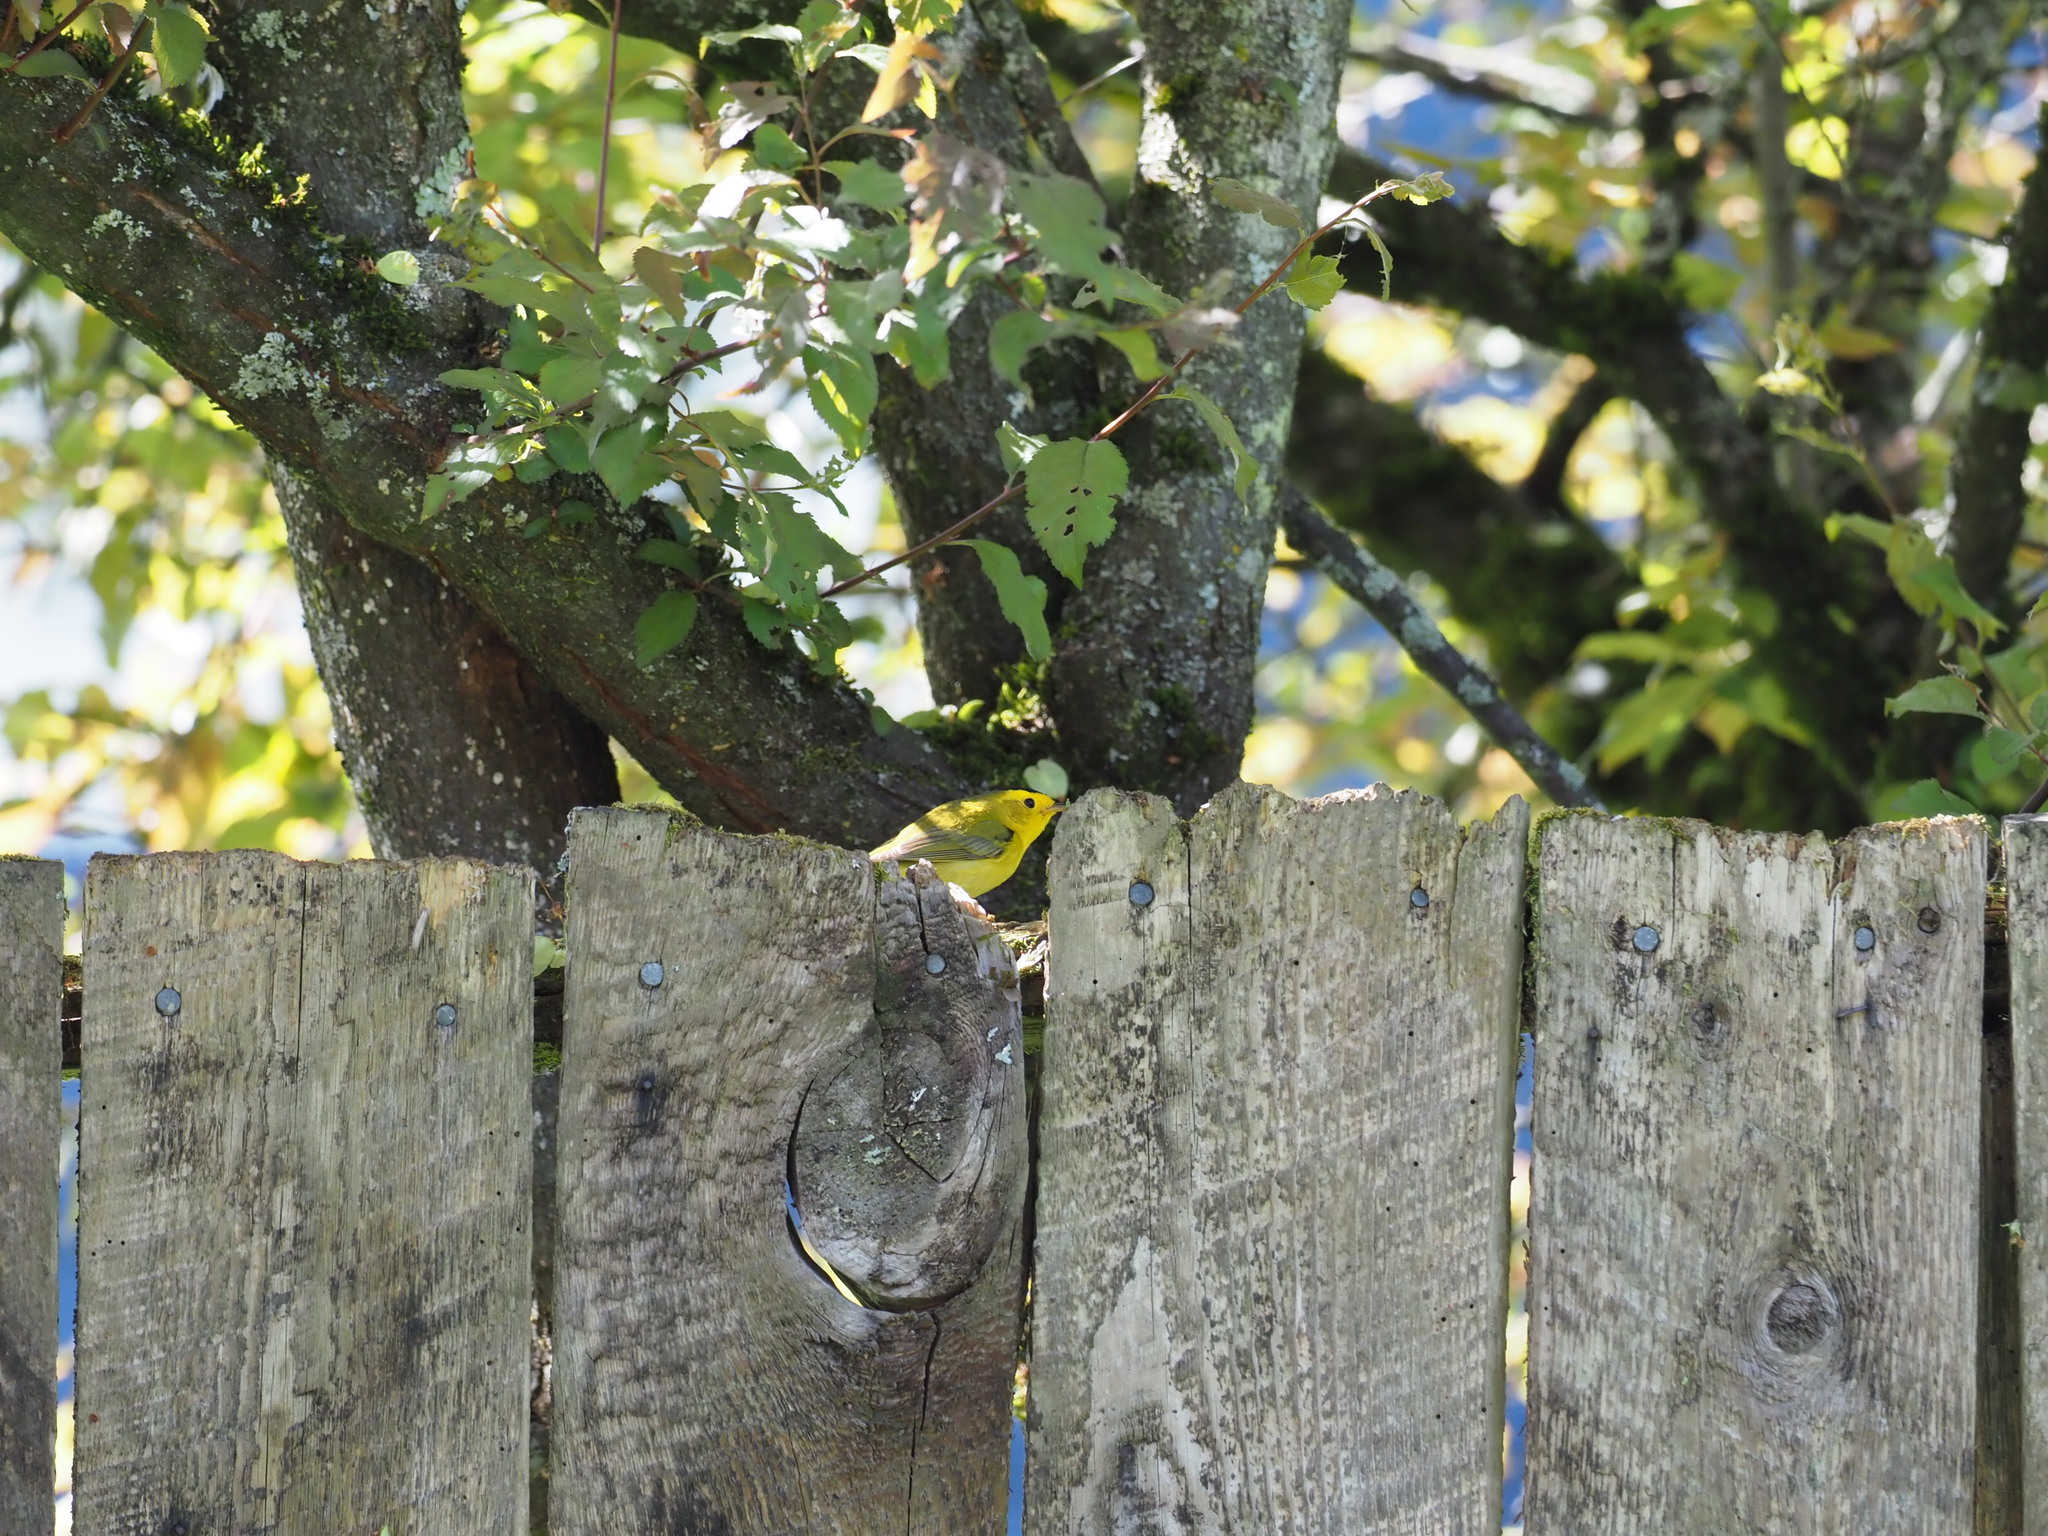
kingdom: Animalia
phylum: Chordata
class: Aves
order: Passeriformes
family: Parulidae
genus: Cardellina
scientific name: Cardellina pusilla
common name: Wilson's warbler
